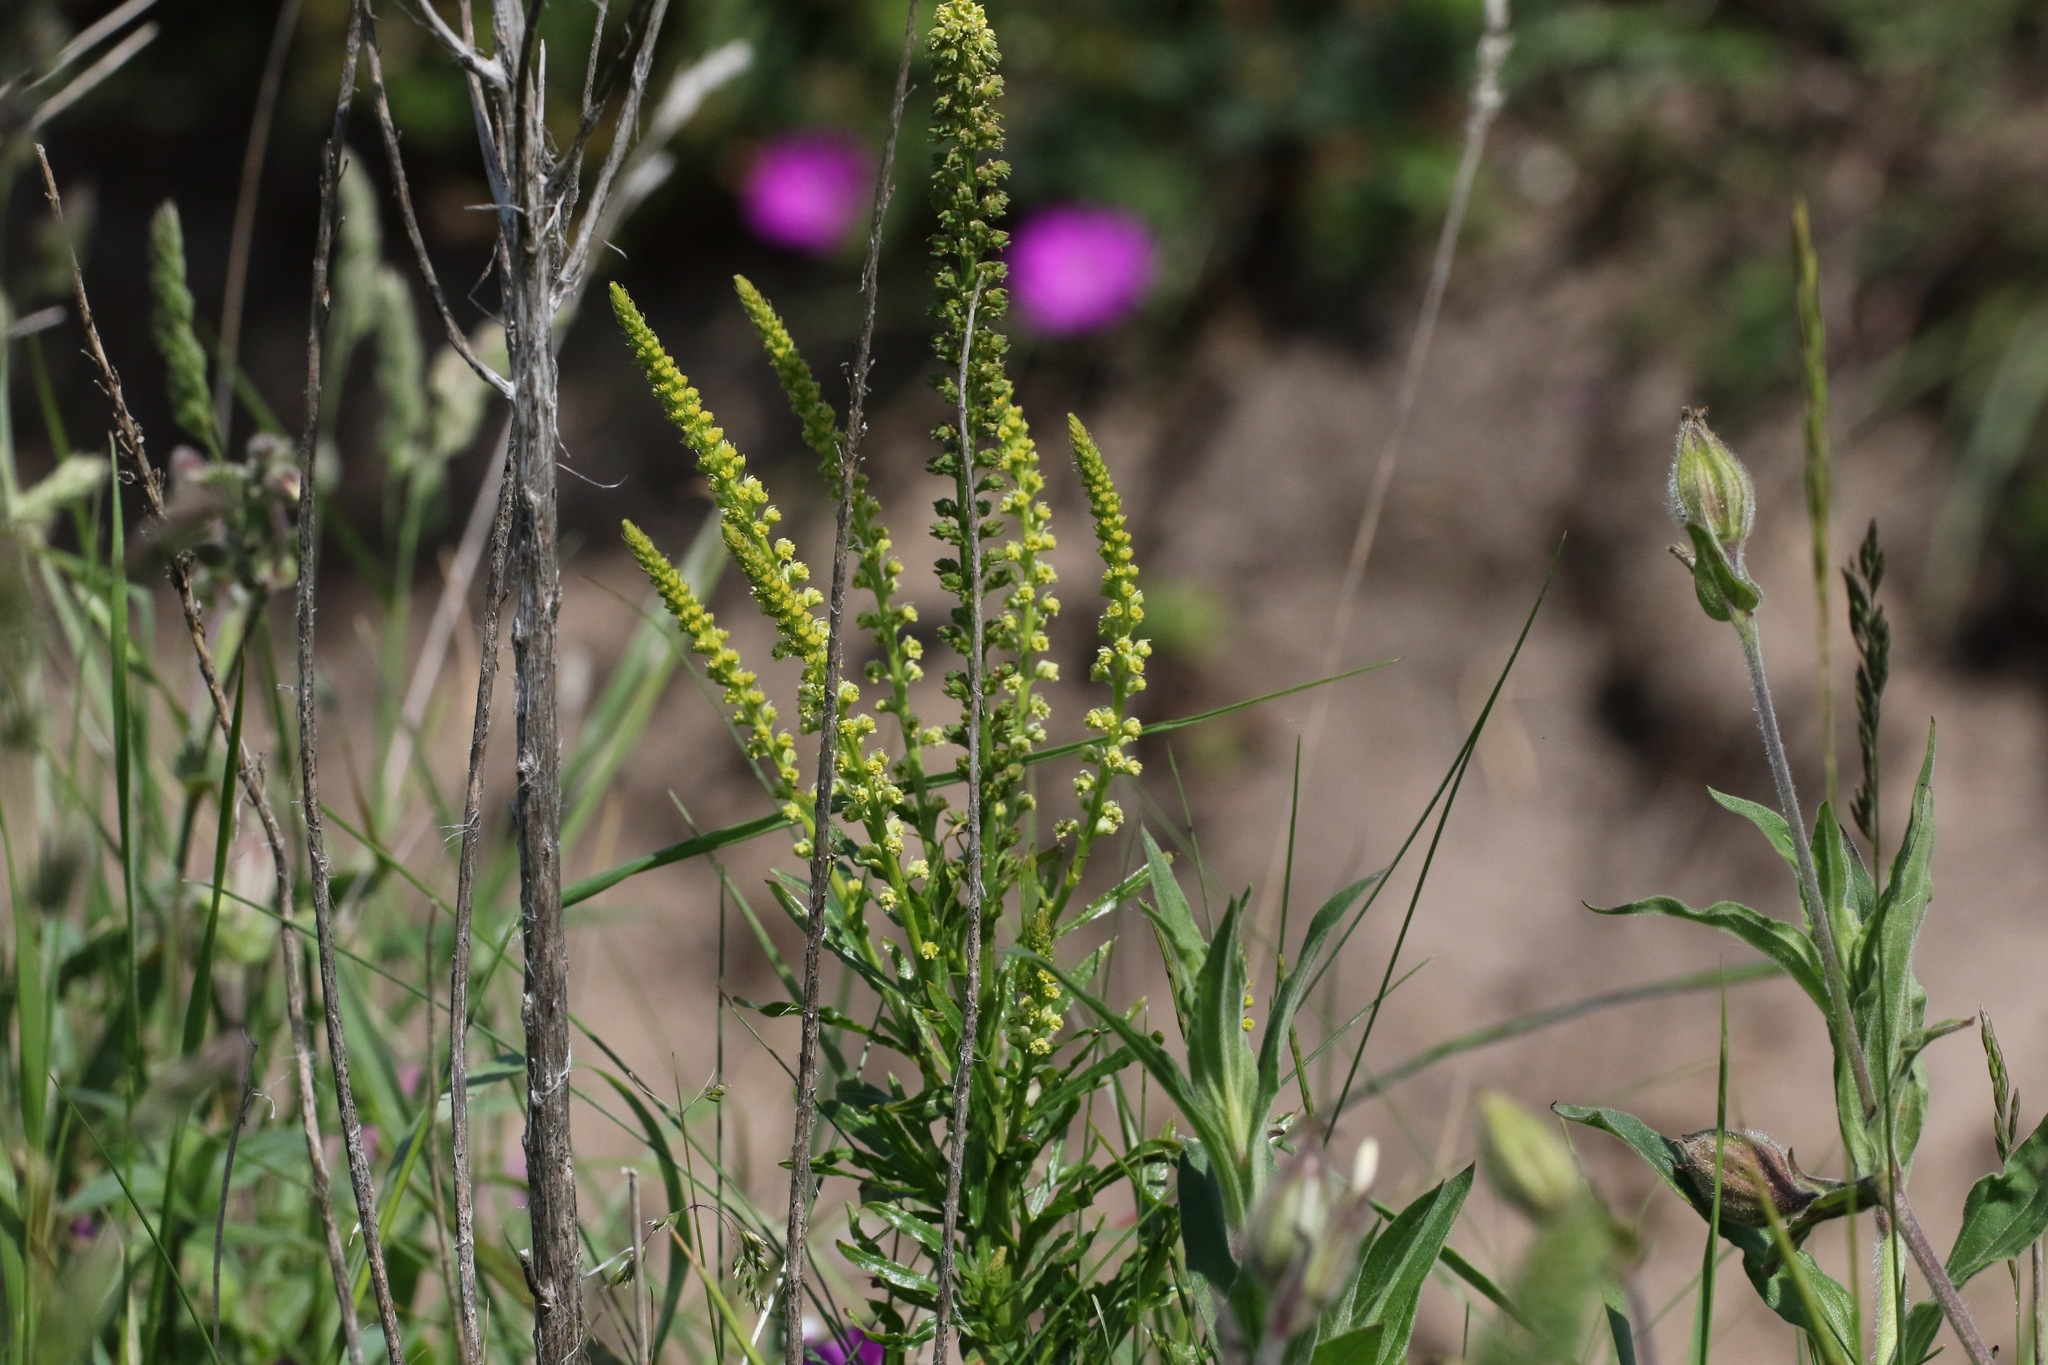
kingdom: Plantae
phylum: Tracheophyta
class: Magnoliopsida
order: Brassicales
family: Resedaceae
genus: Reseda
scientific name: Reseda luteola
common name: Weld
